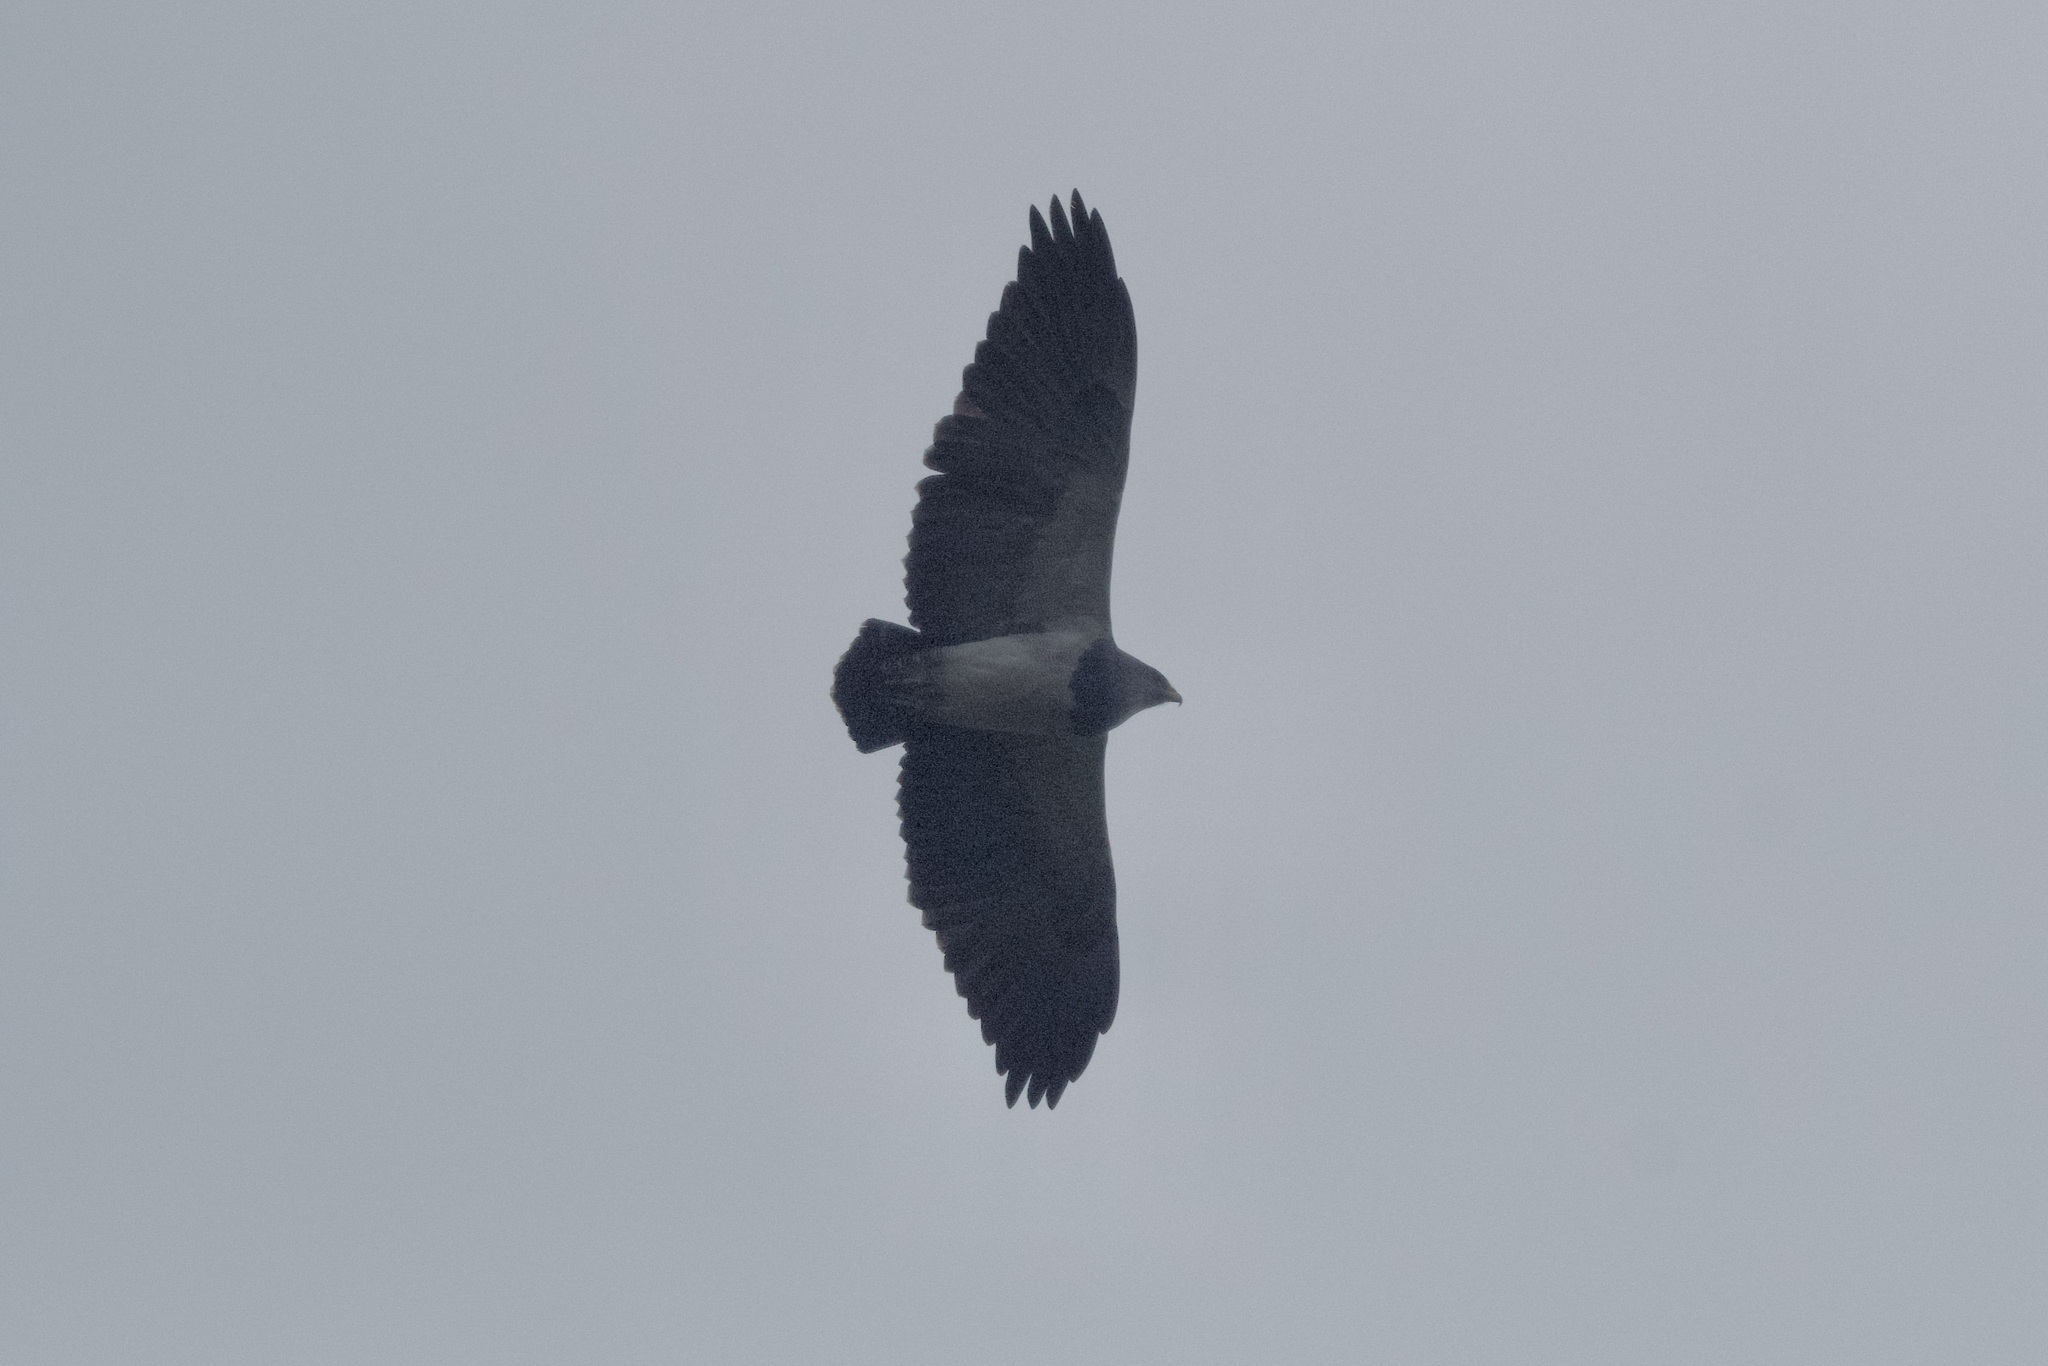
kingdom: Animalia
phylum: Chordata
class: Aves
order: Accipitriformes
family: Accipitridae
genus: Geranoaetus
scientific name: Geranoaetus melanoleucus
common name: Black-chested buzzard-eagle
